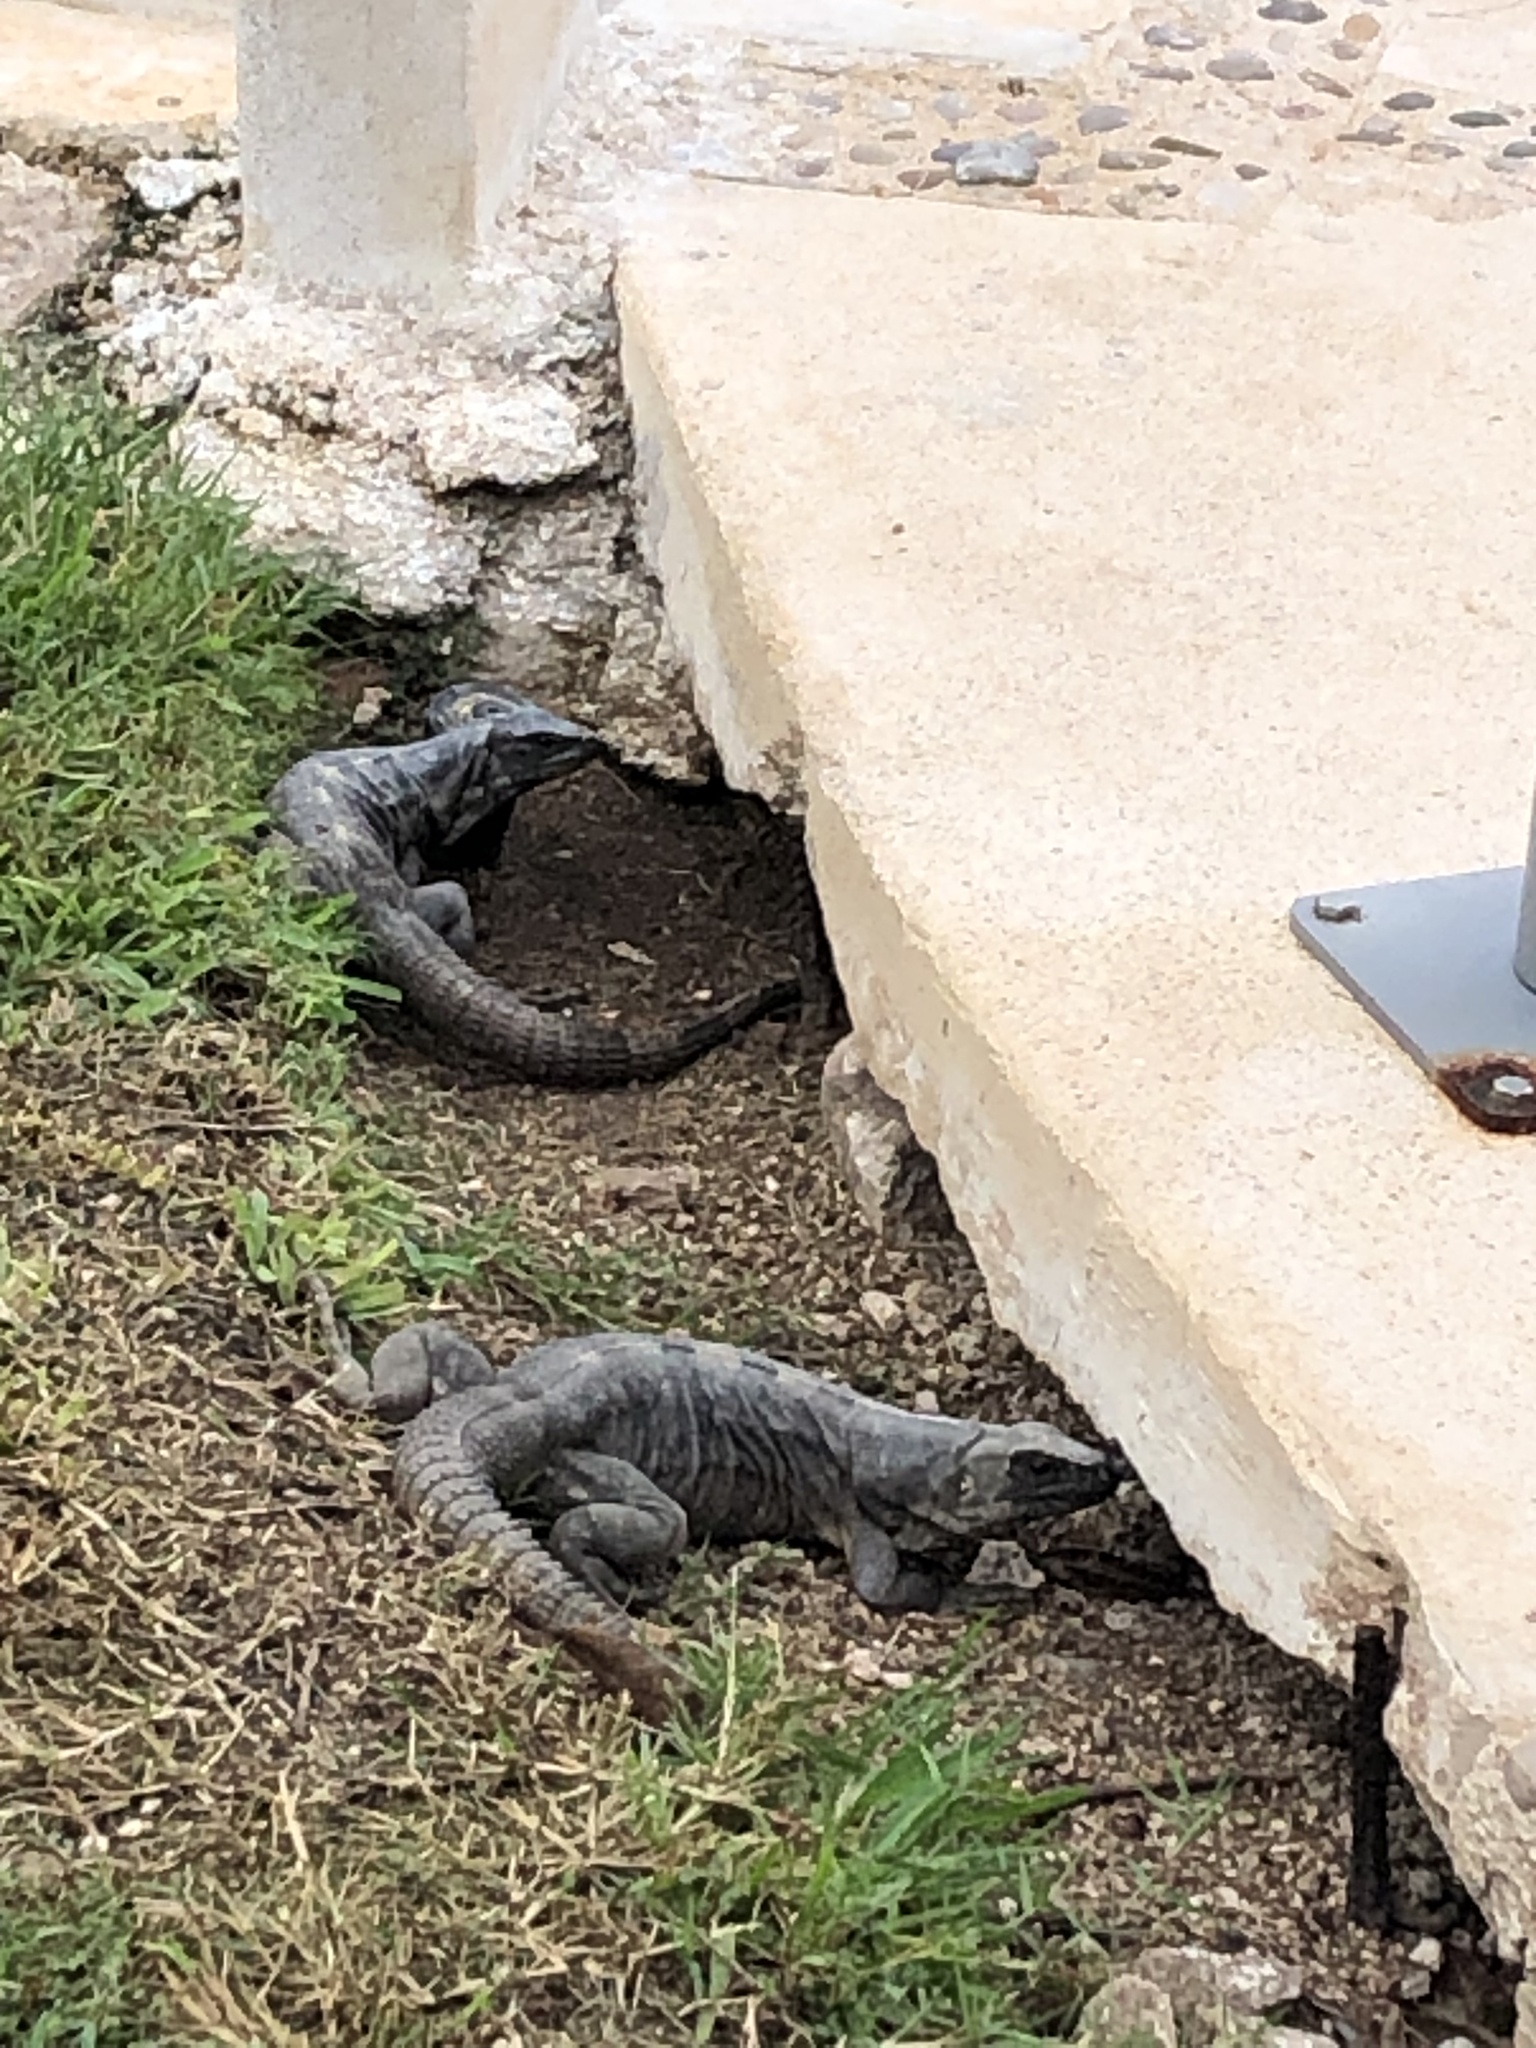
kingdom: Animalia
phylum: Chordata
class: Squamata
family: Iguanidae
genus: Ctenosaura
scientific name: Ctenosaura similis
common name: Black spiny-tailed iguana
